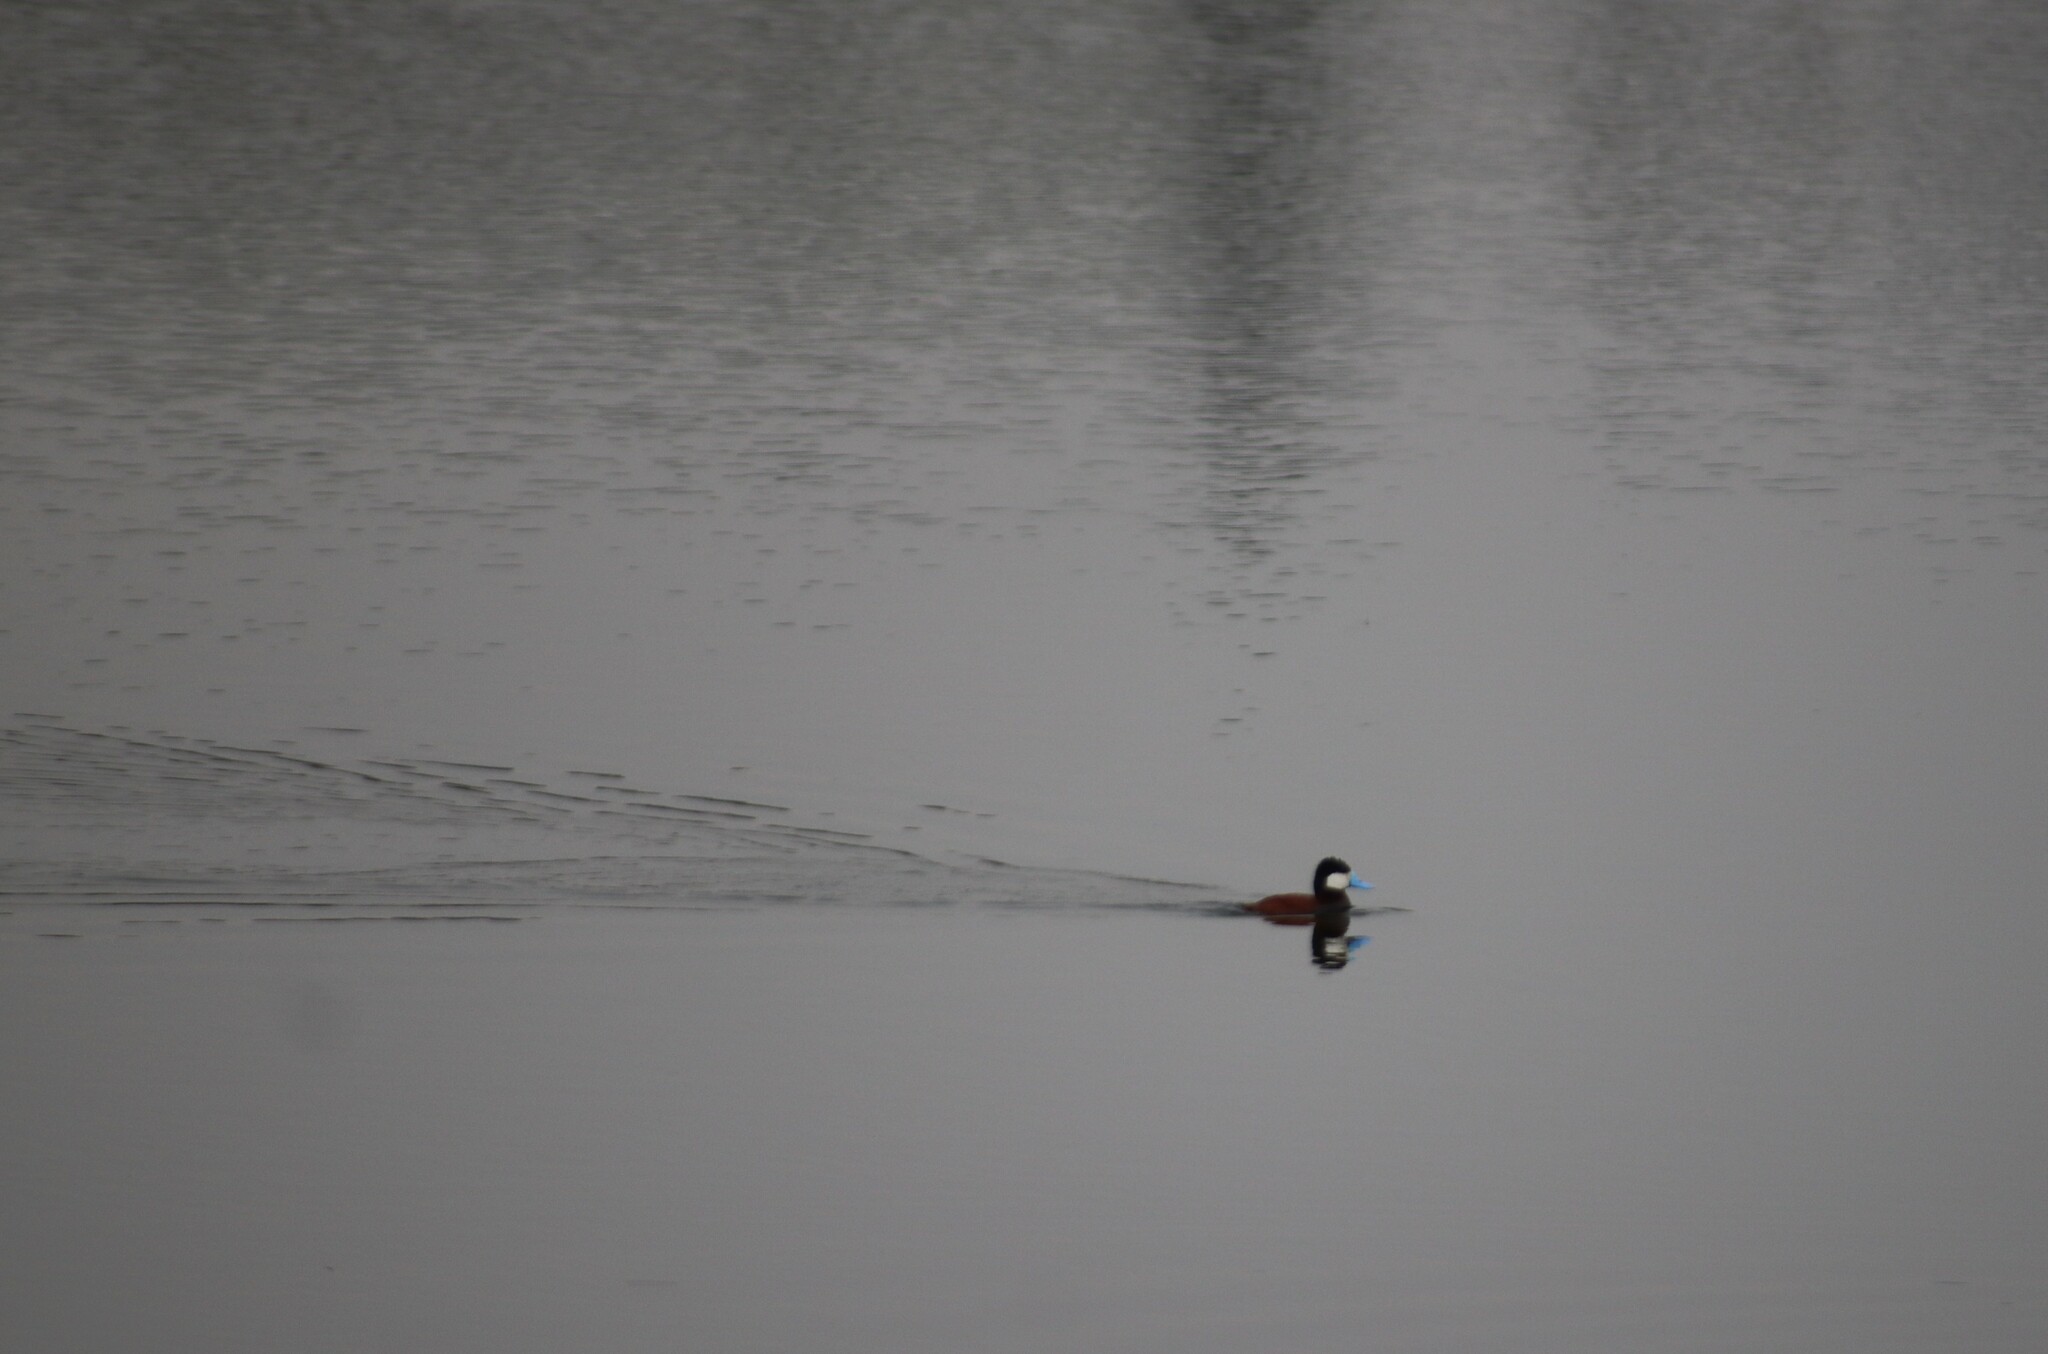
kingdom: Animalia
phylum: Chordata
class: Aves
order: Anseriformes
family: Anatidae
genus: Oxyura
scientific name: Oxyura jamaicensis
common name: Ruddy duck
